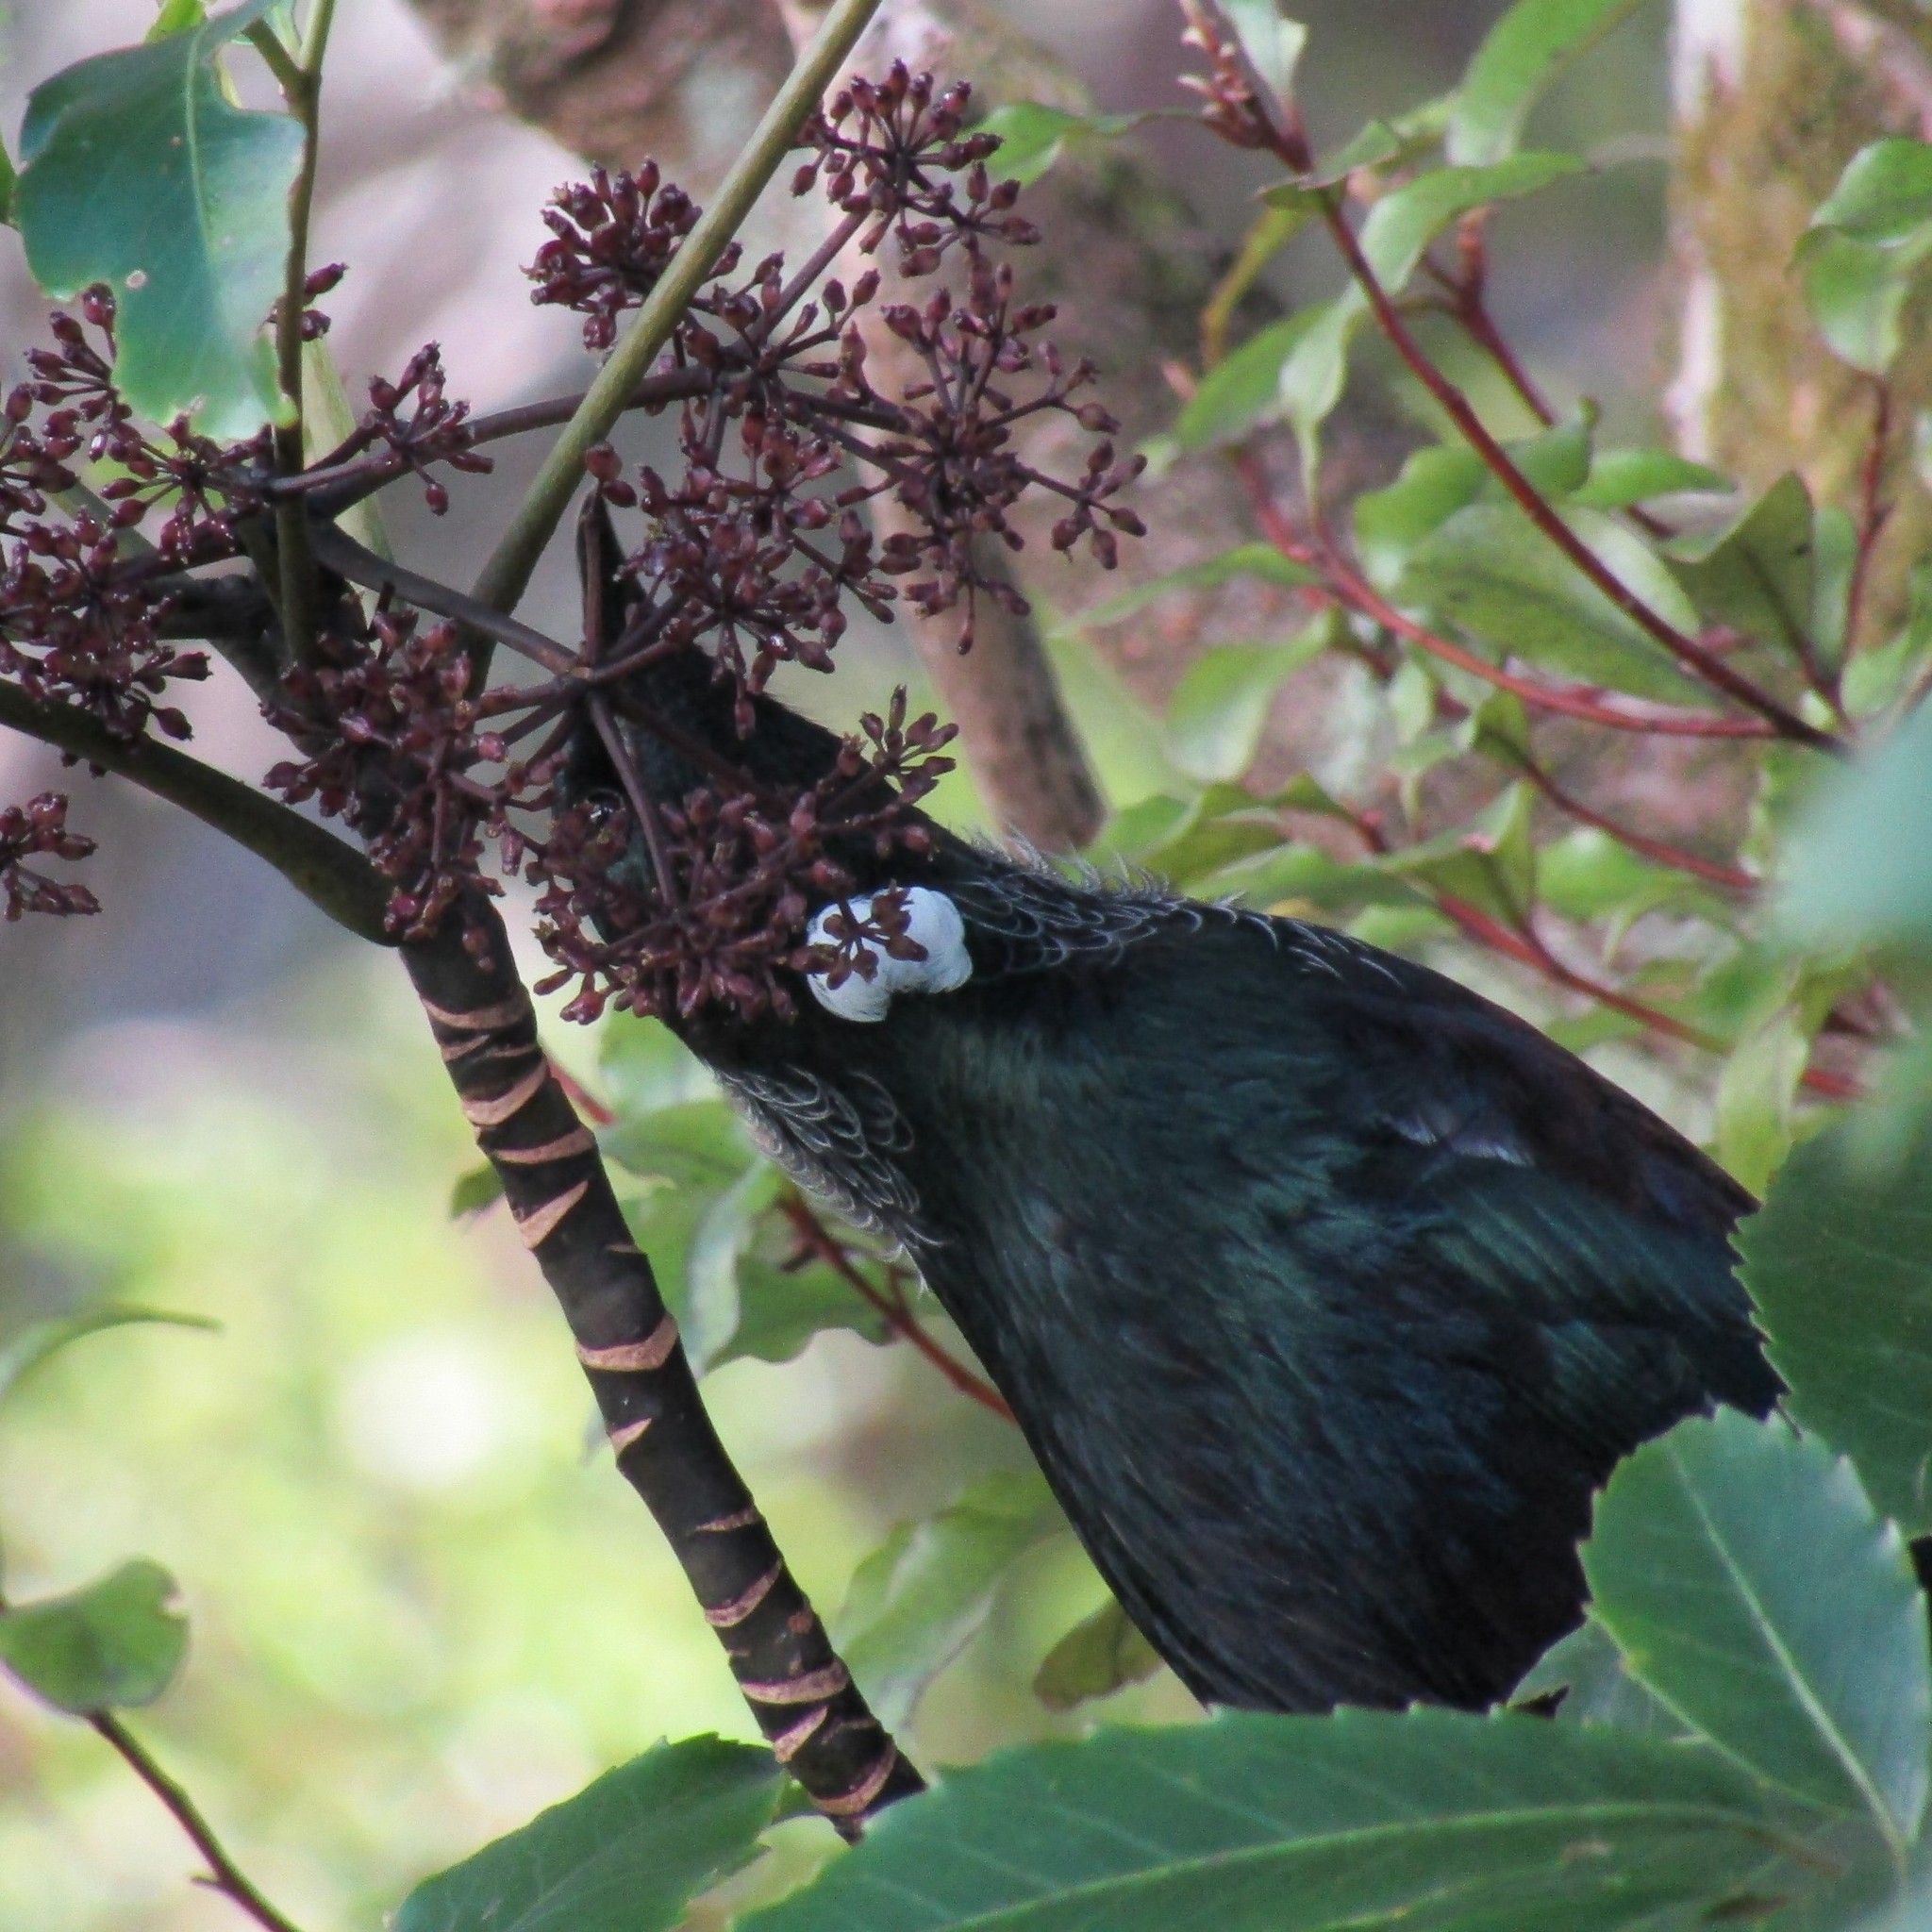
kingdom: Animalia
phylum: Chordata
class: Aves
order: Passeriformes
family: Meliphagidae
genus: Prosthemadera
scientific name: Prosthemadera novaeseelandiae
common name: Tui
